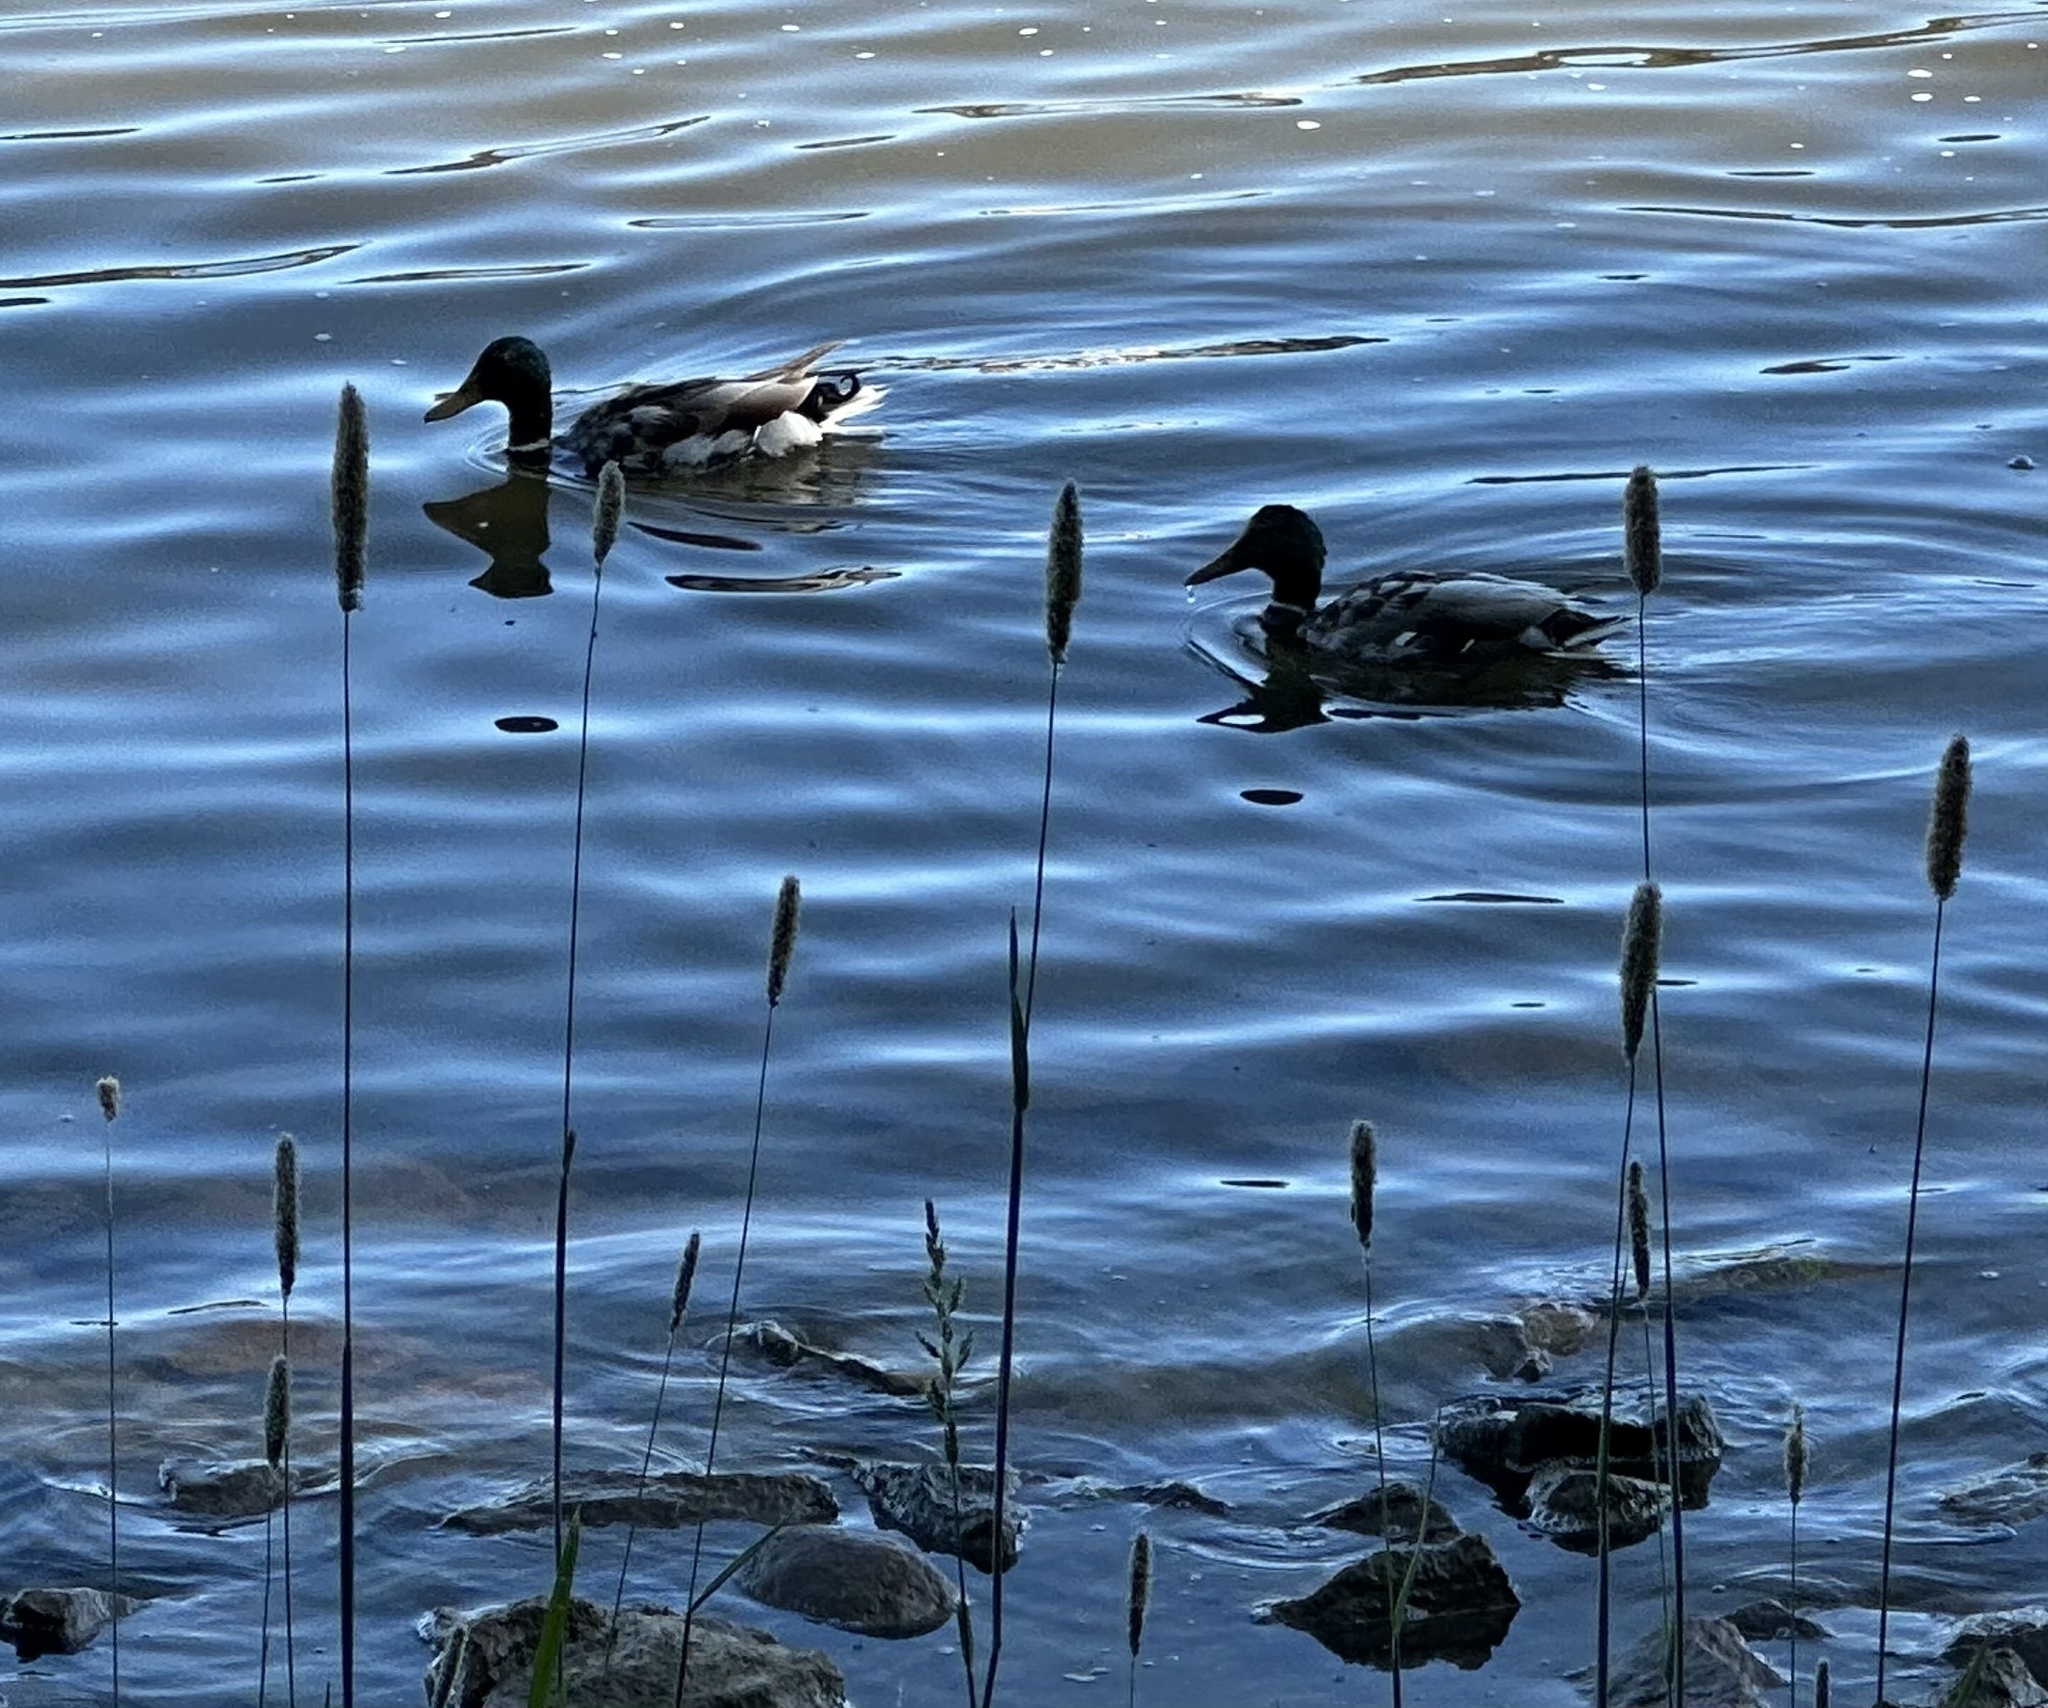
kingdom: Animalia
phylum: Chordata
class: Aves
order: Anseriformes
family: Anatidae
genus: Anas
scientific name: Anas platyrhynchos
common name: Mallard
